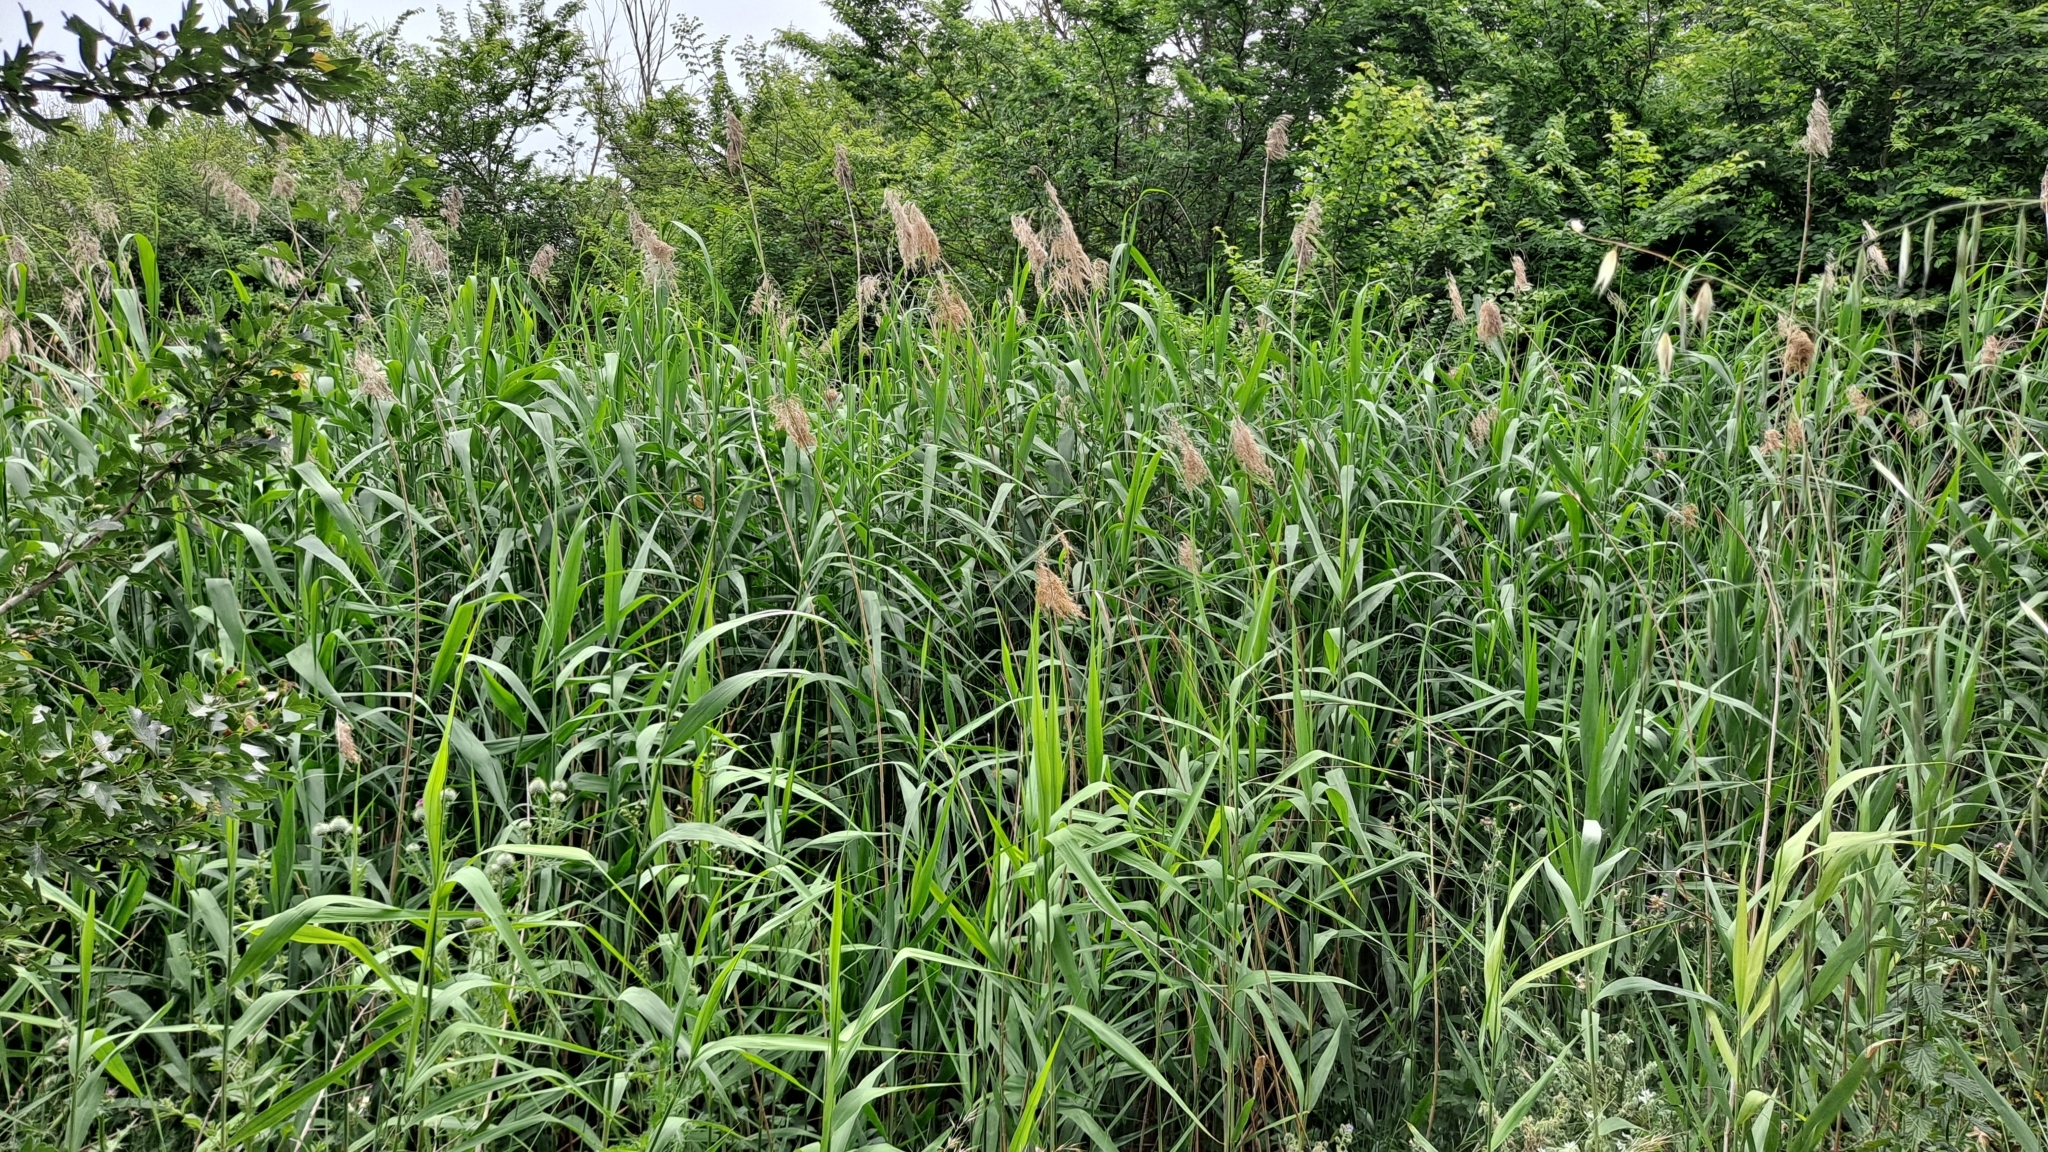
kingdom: Plantae
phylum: Tracheophyta
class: Liliopsida
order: Poales
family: Poaceae
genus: Phragmites
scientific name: Phragmites australis
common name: Common reed
